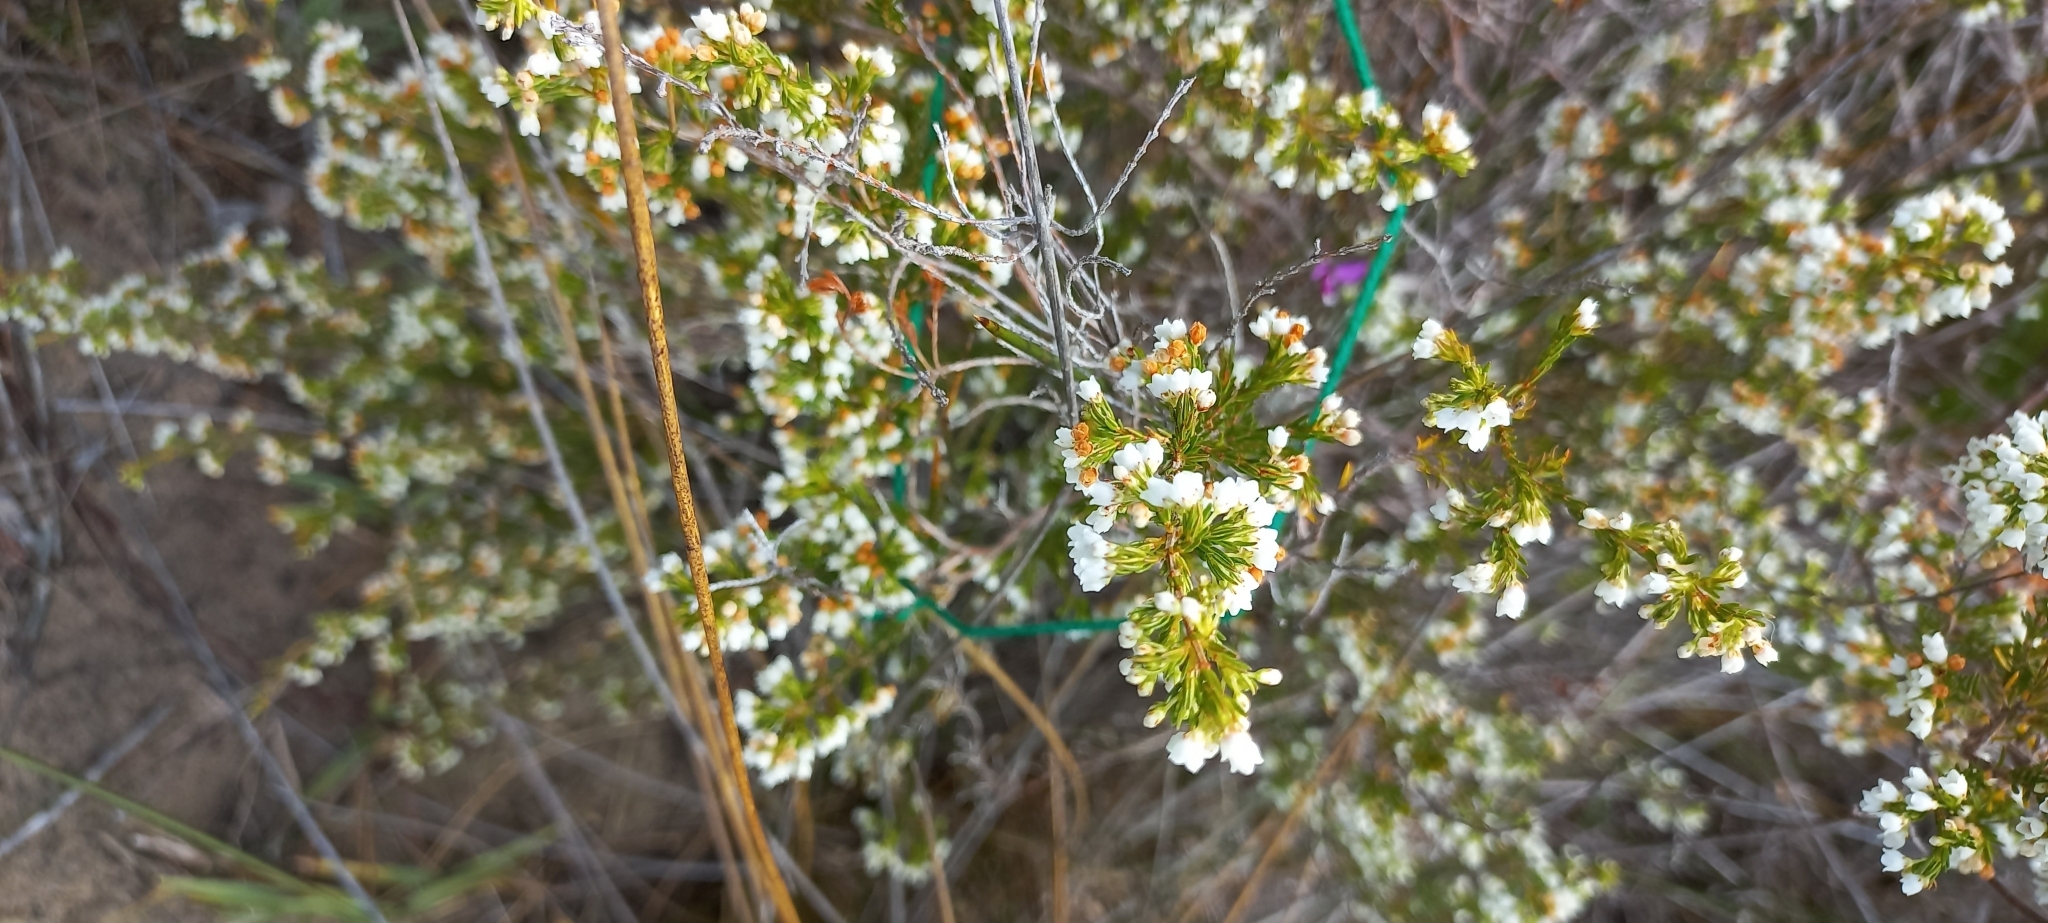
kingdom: Plantae
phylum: Tracheophyta
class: Magnoliopsida
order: Ericales
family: Ericaceae
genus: Erica
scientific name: Erica subdivaricata
